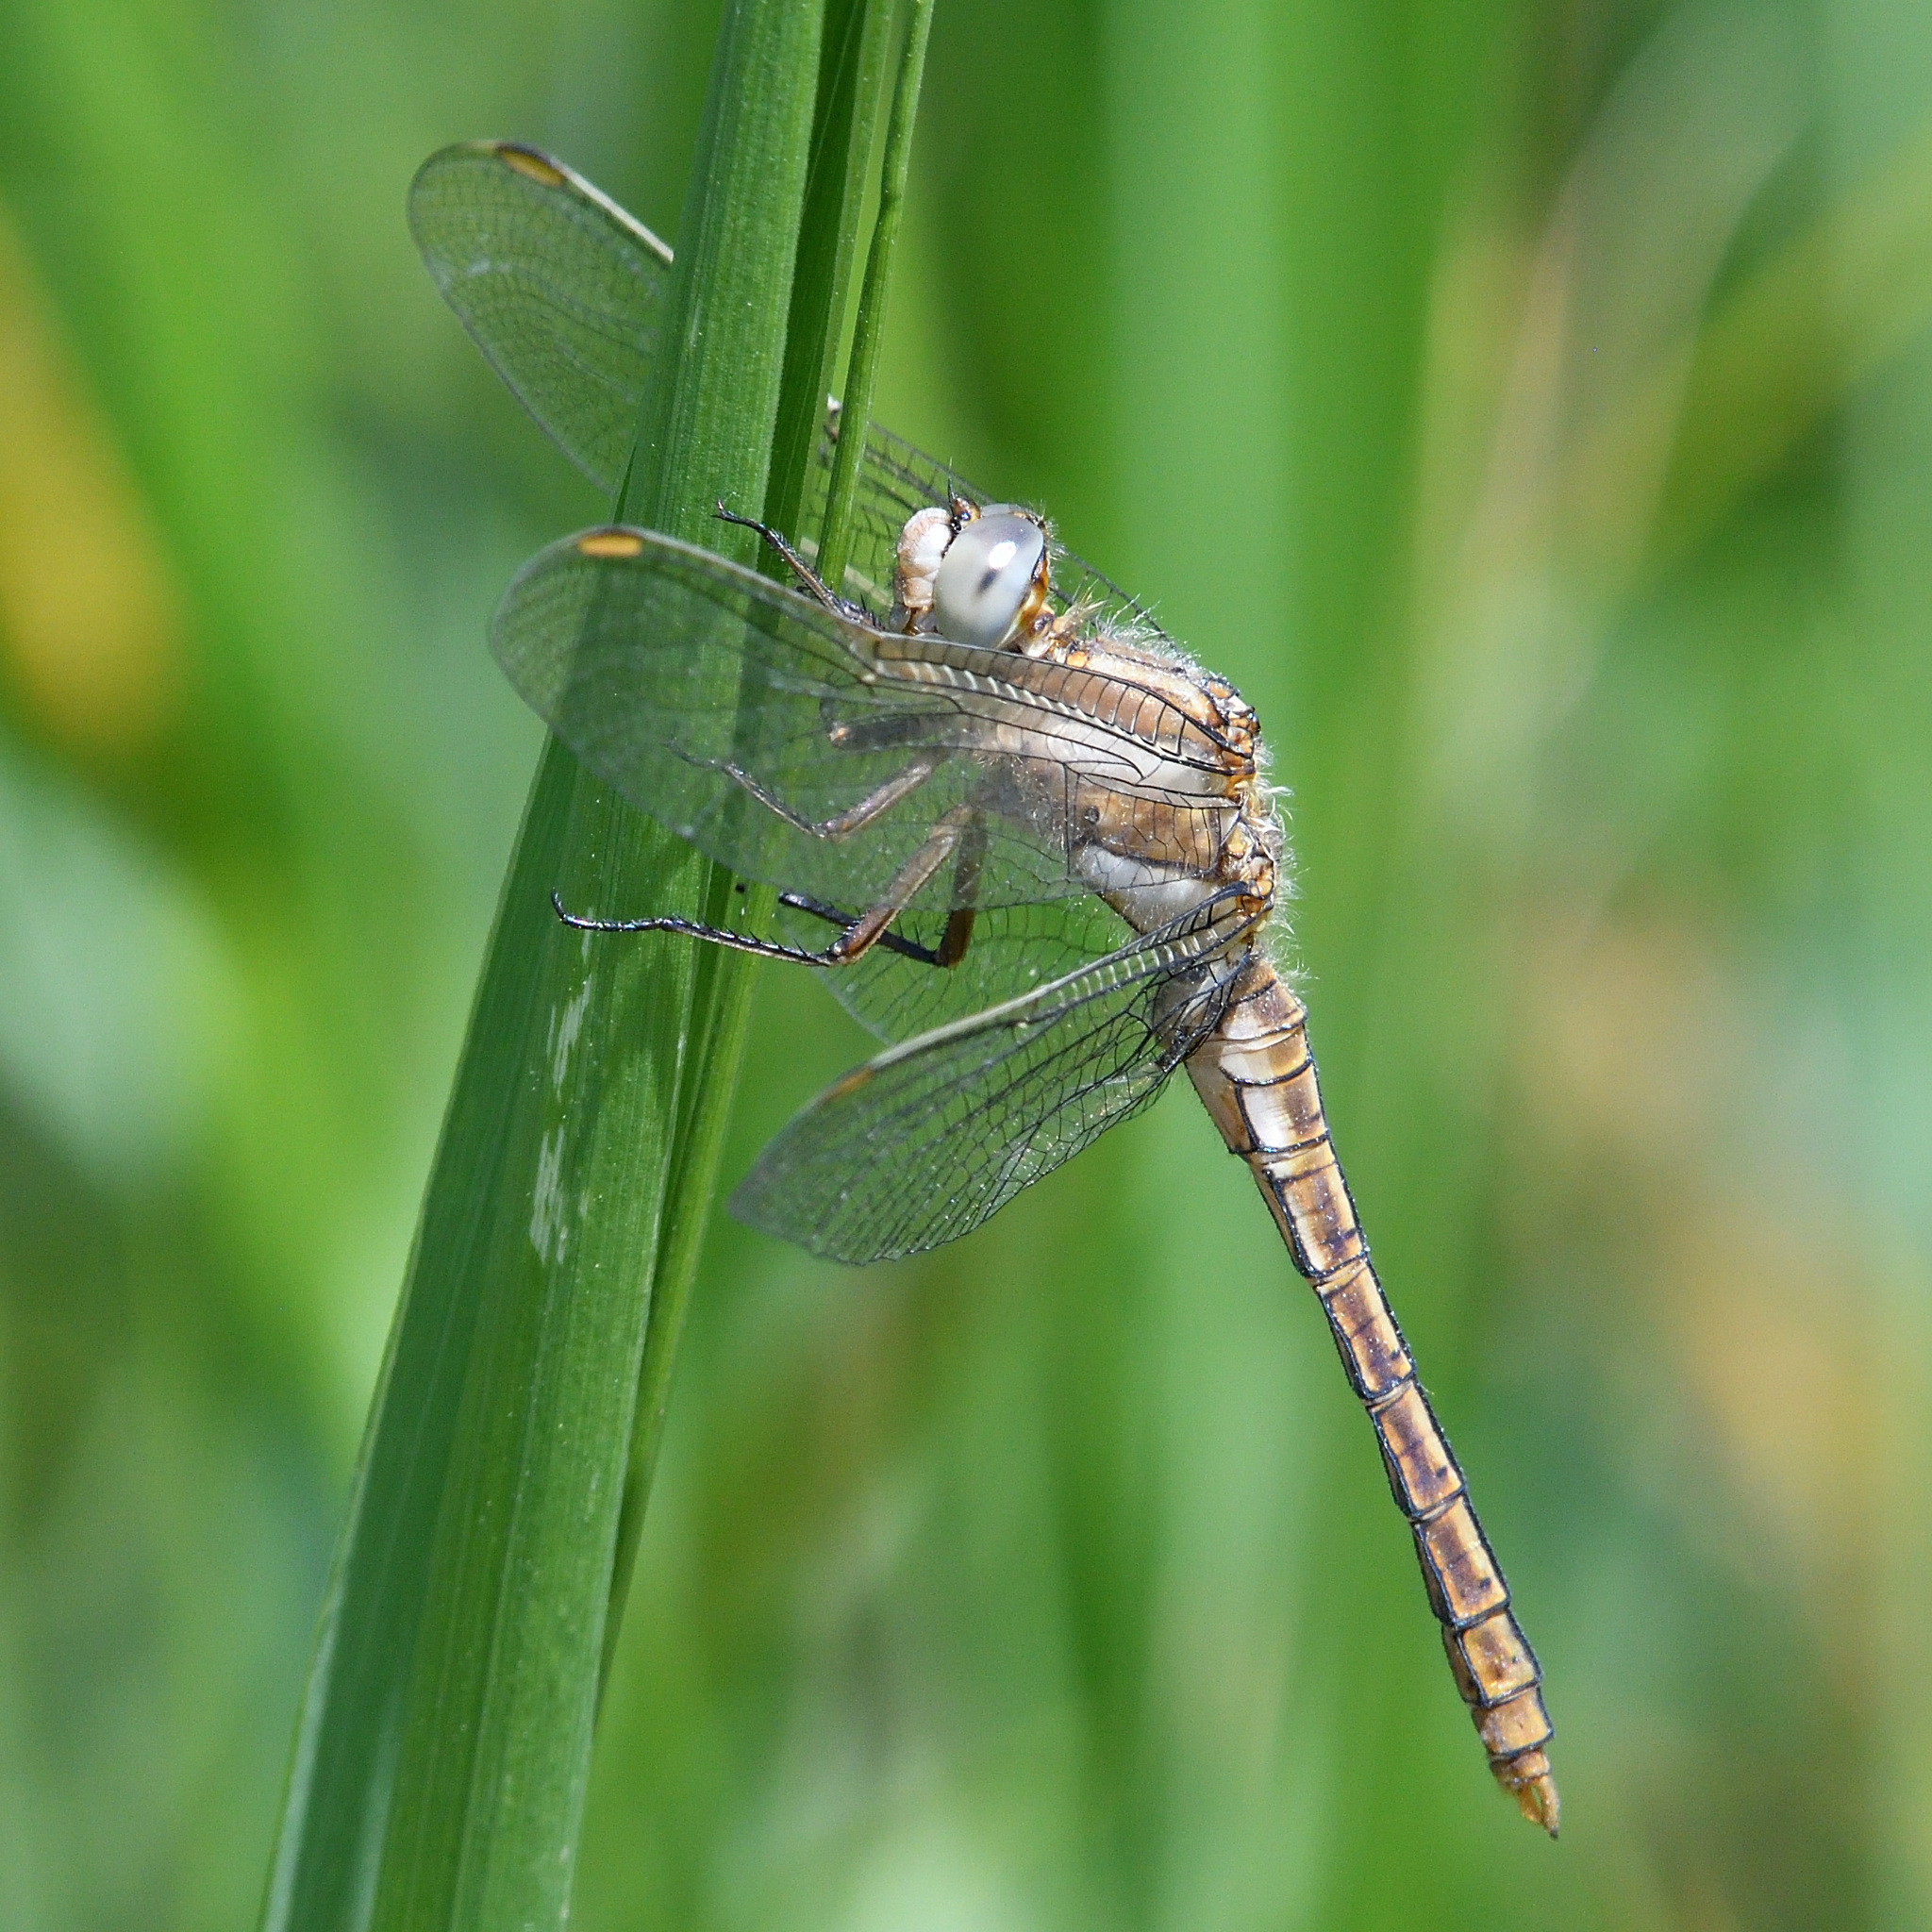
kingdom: Animalia
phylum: Arthropoda
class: Insecta
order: Odonata
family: Libellulidae
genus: Orthetrum
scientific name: Orthetrum brunneum
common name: Southern skimmer
